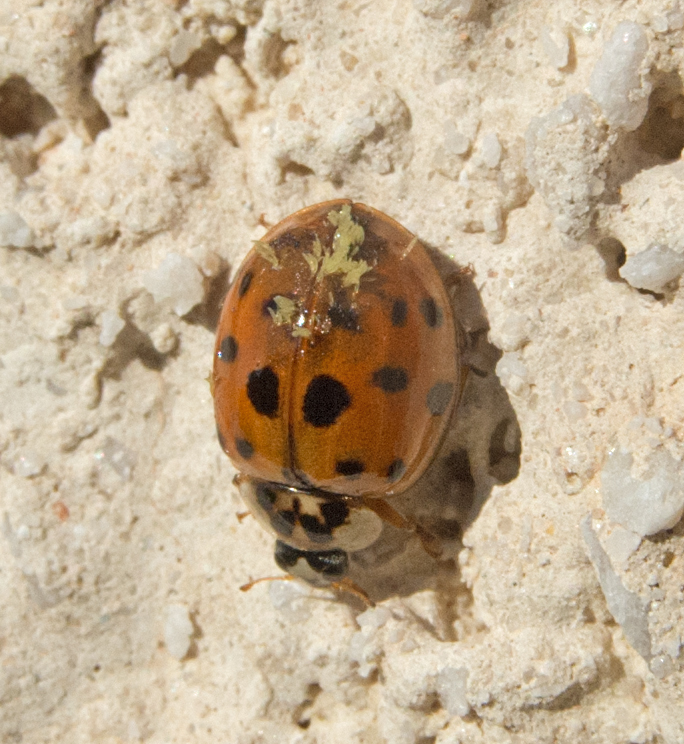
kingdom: Animalia
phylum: Arthropoda
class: Insecta
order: Coleoptera
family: Coccinellidae
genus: Harmonia
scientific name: Harmonia axyridis
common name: Harlequin ladybird
